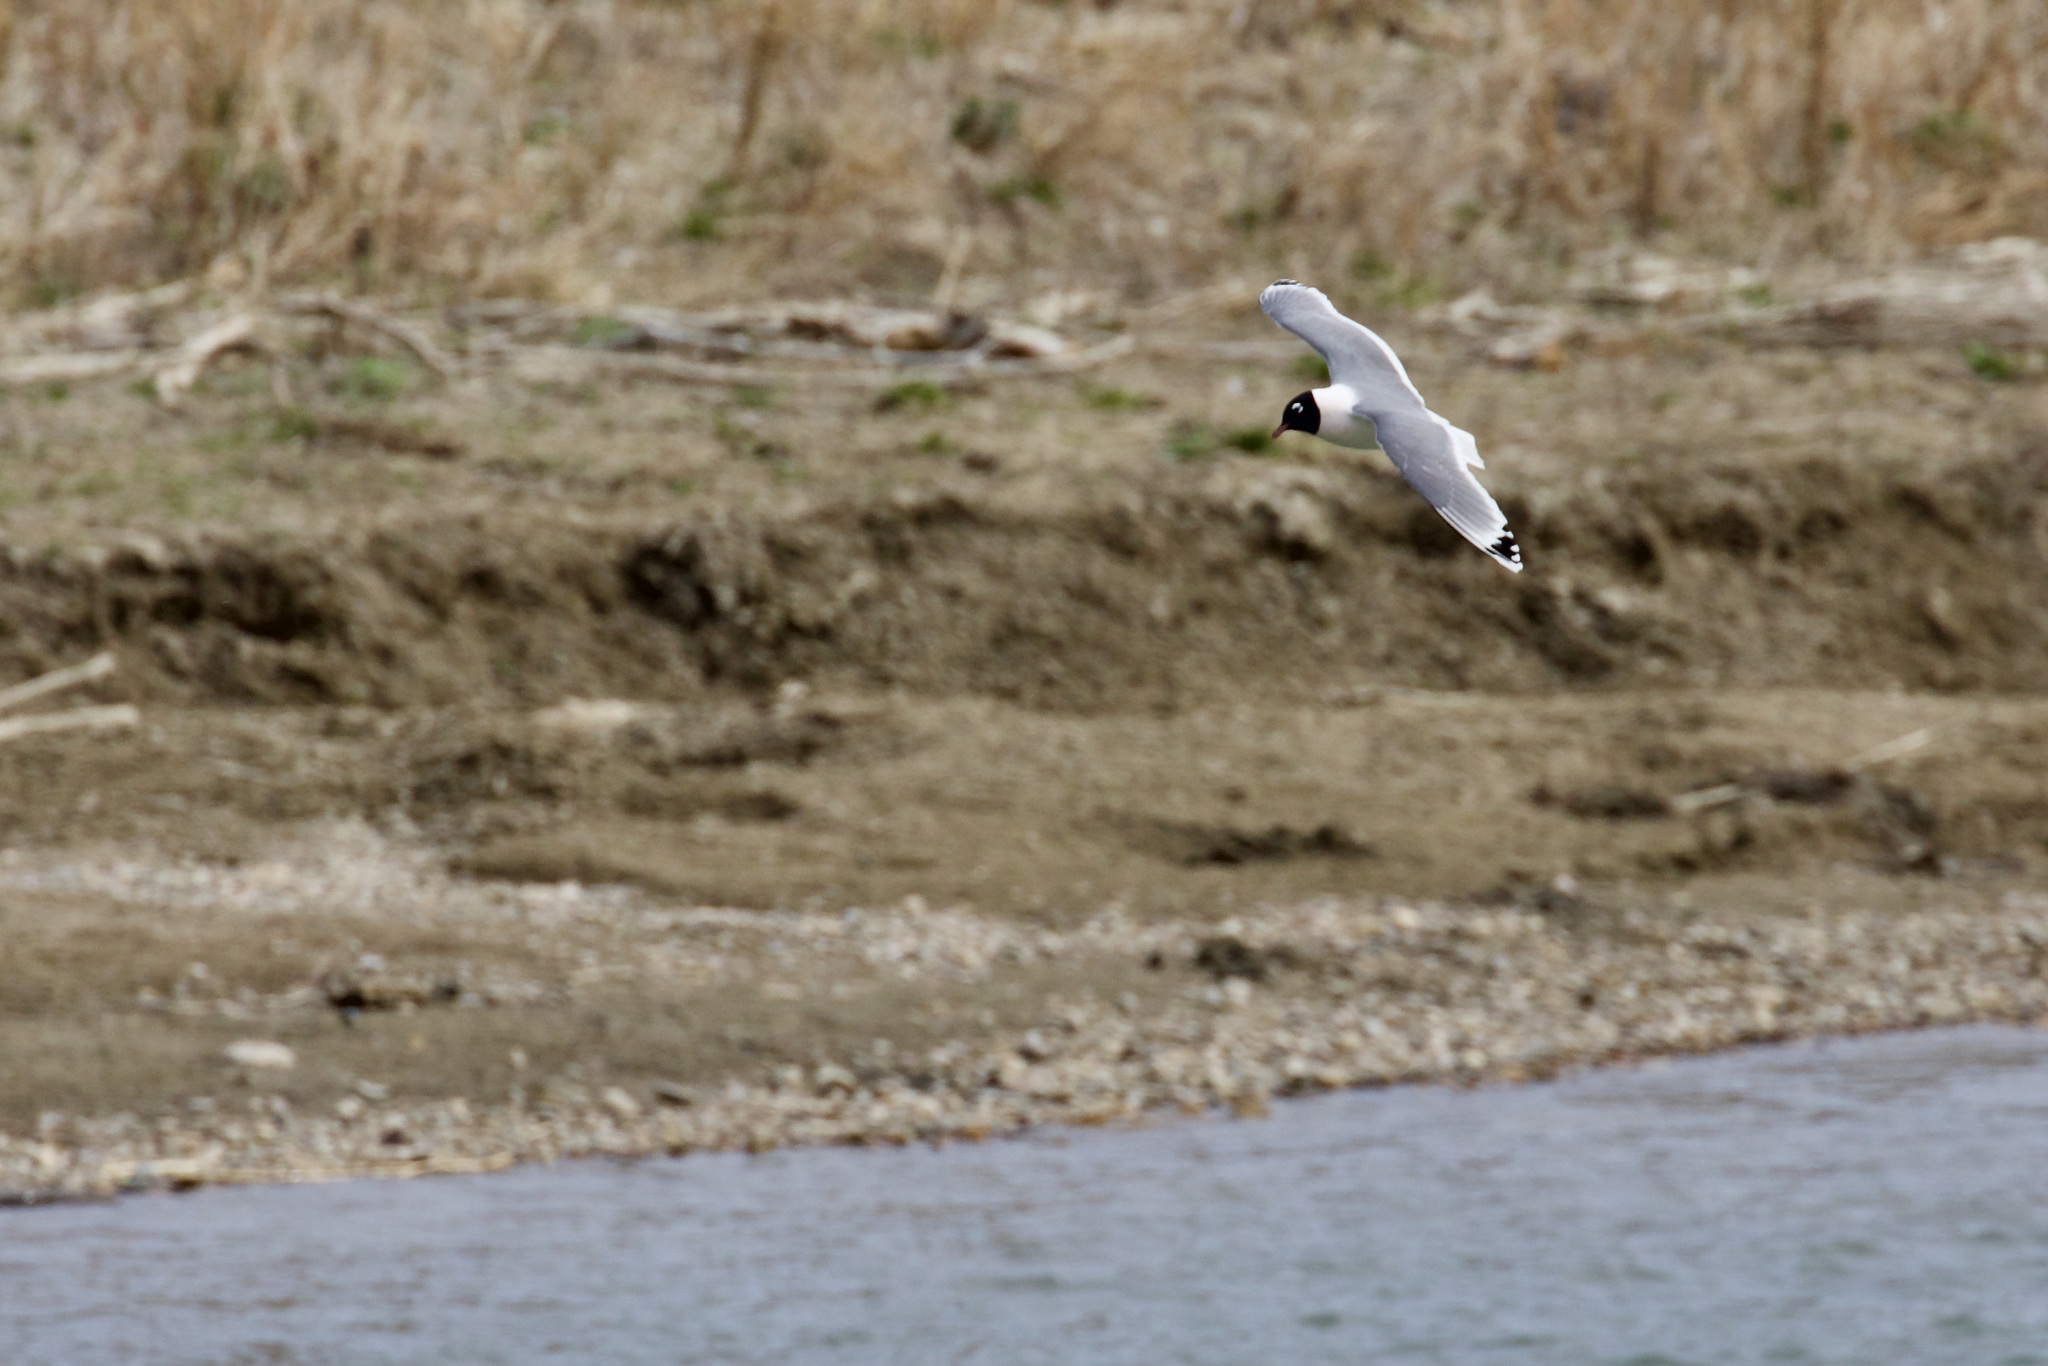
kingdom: Animalia
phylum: Chordata
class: Aves
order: Charadriiformes
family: Laridae
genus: Leucophaeus
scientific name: Leucophaeus pipixcan
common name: Franklin's gull
